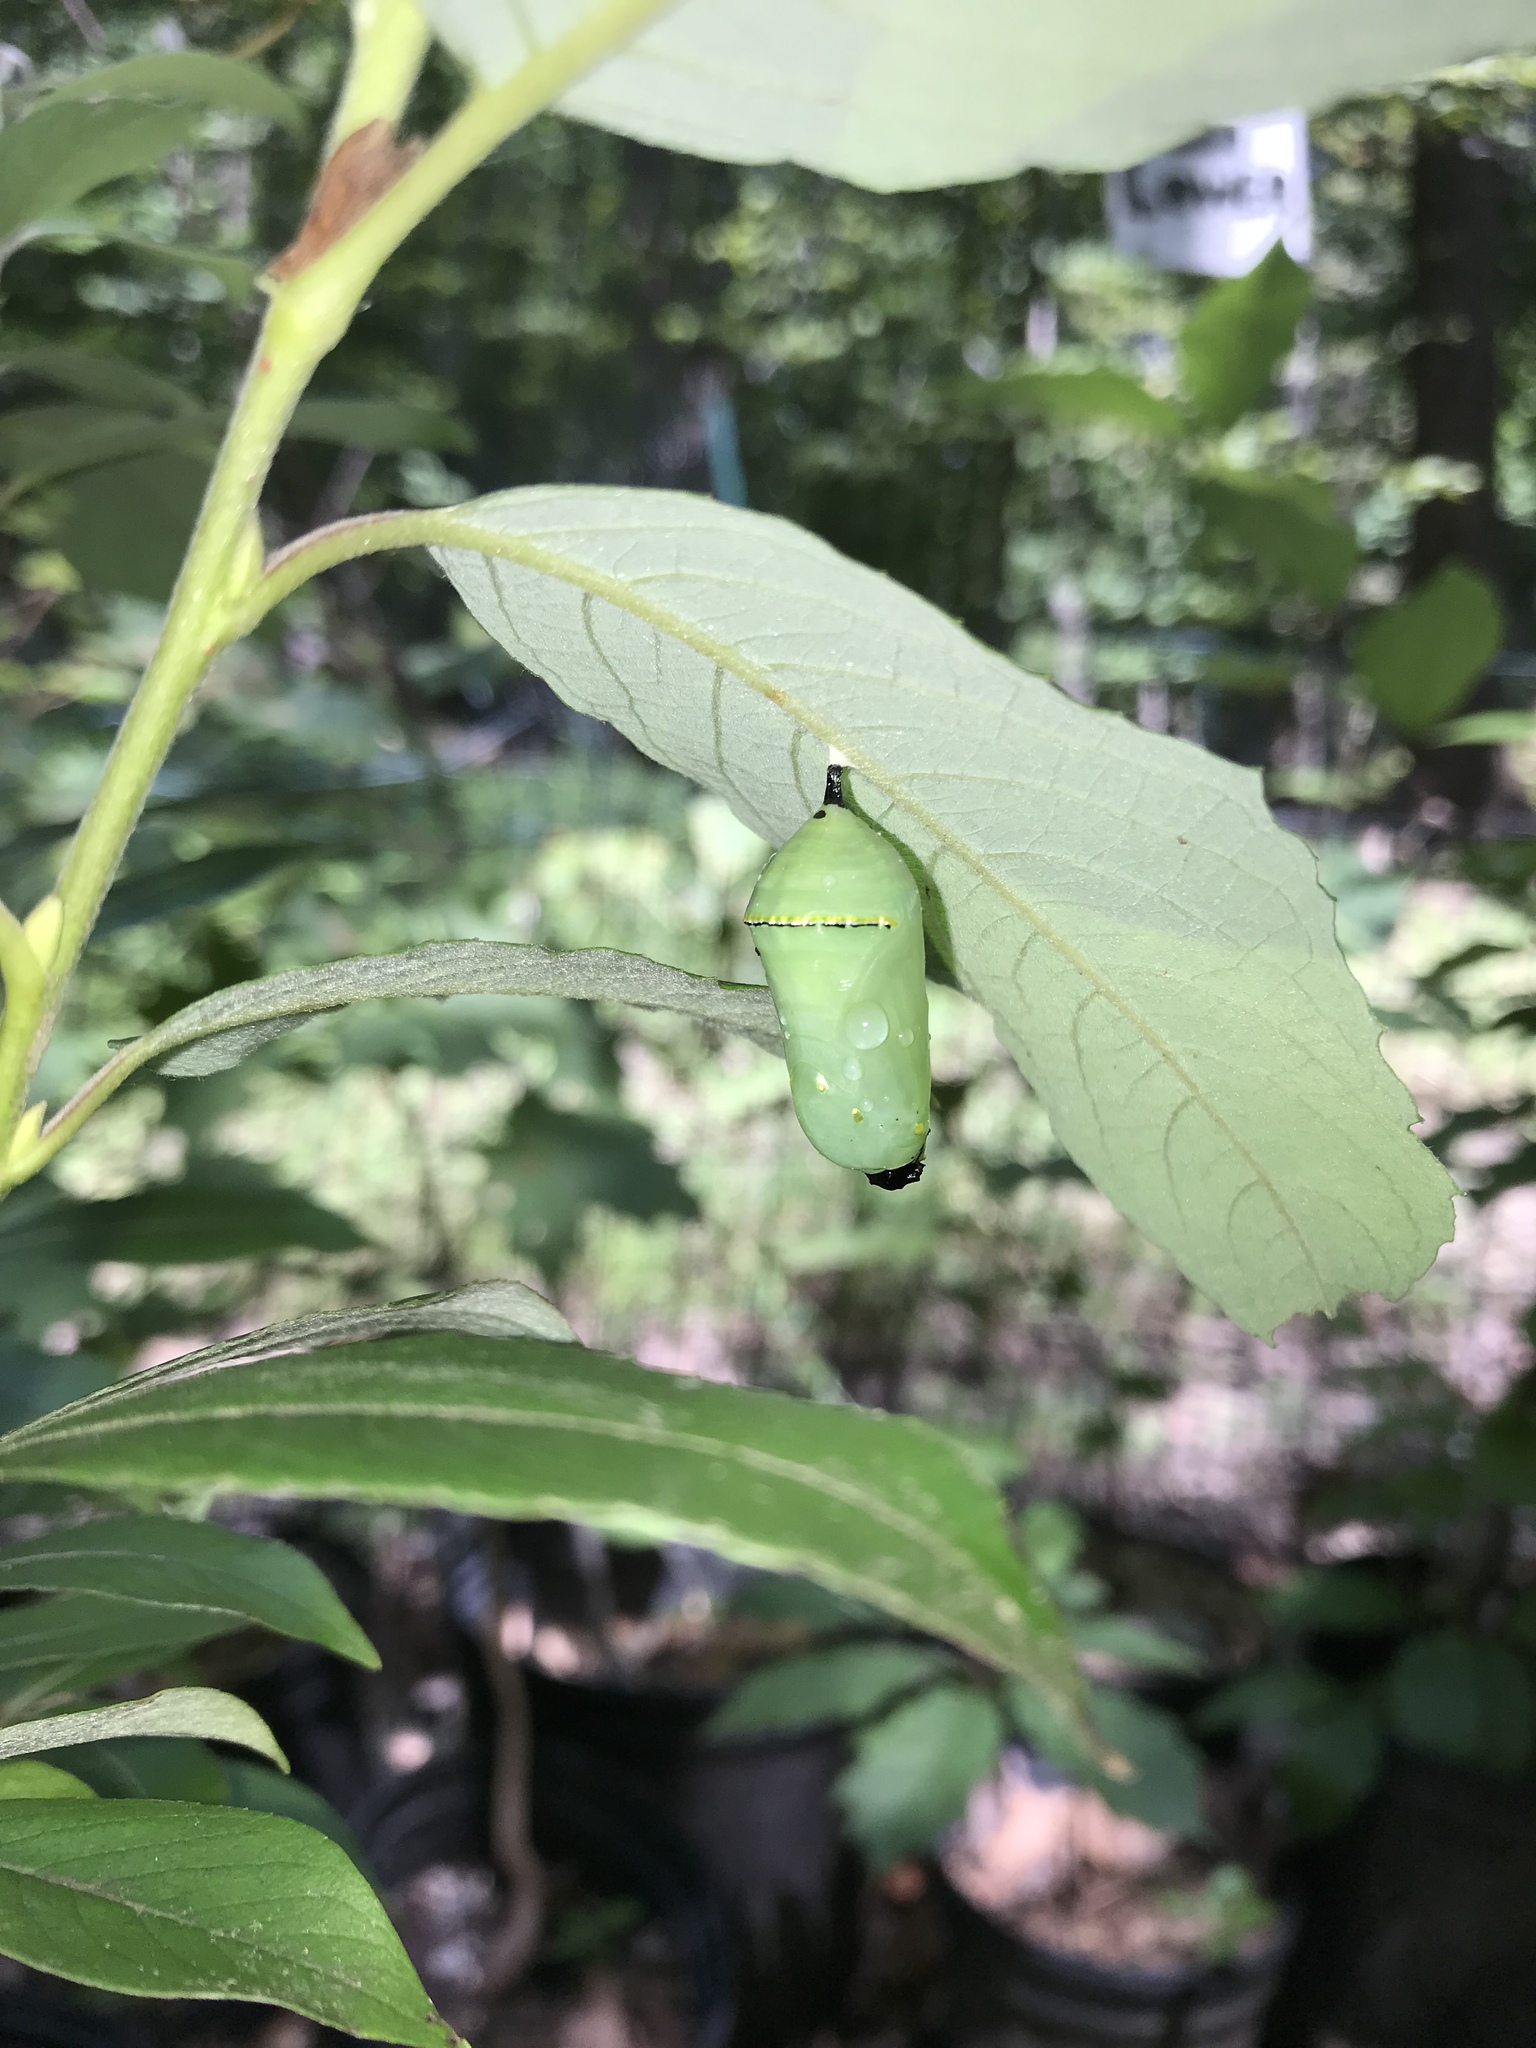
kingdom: Animalia
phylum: Arthropoda
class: Insecta
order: Lepidoptera
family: Nymphalidae
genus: Danaus
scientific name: Danaus plexippus
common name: Monarch
